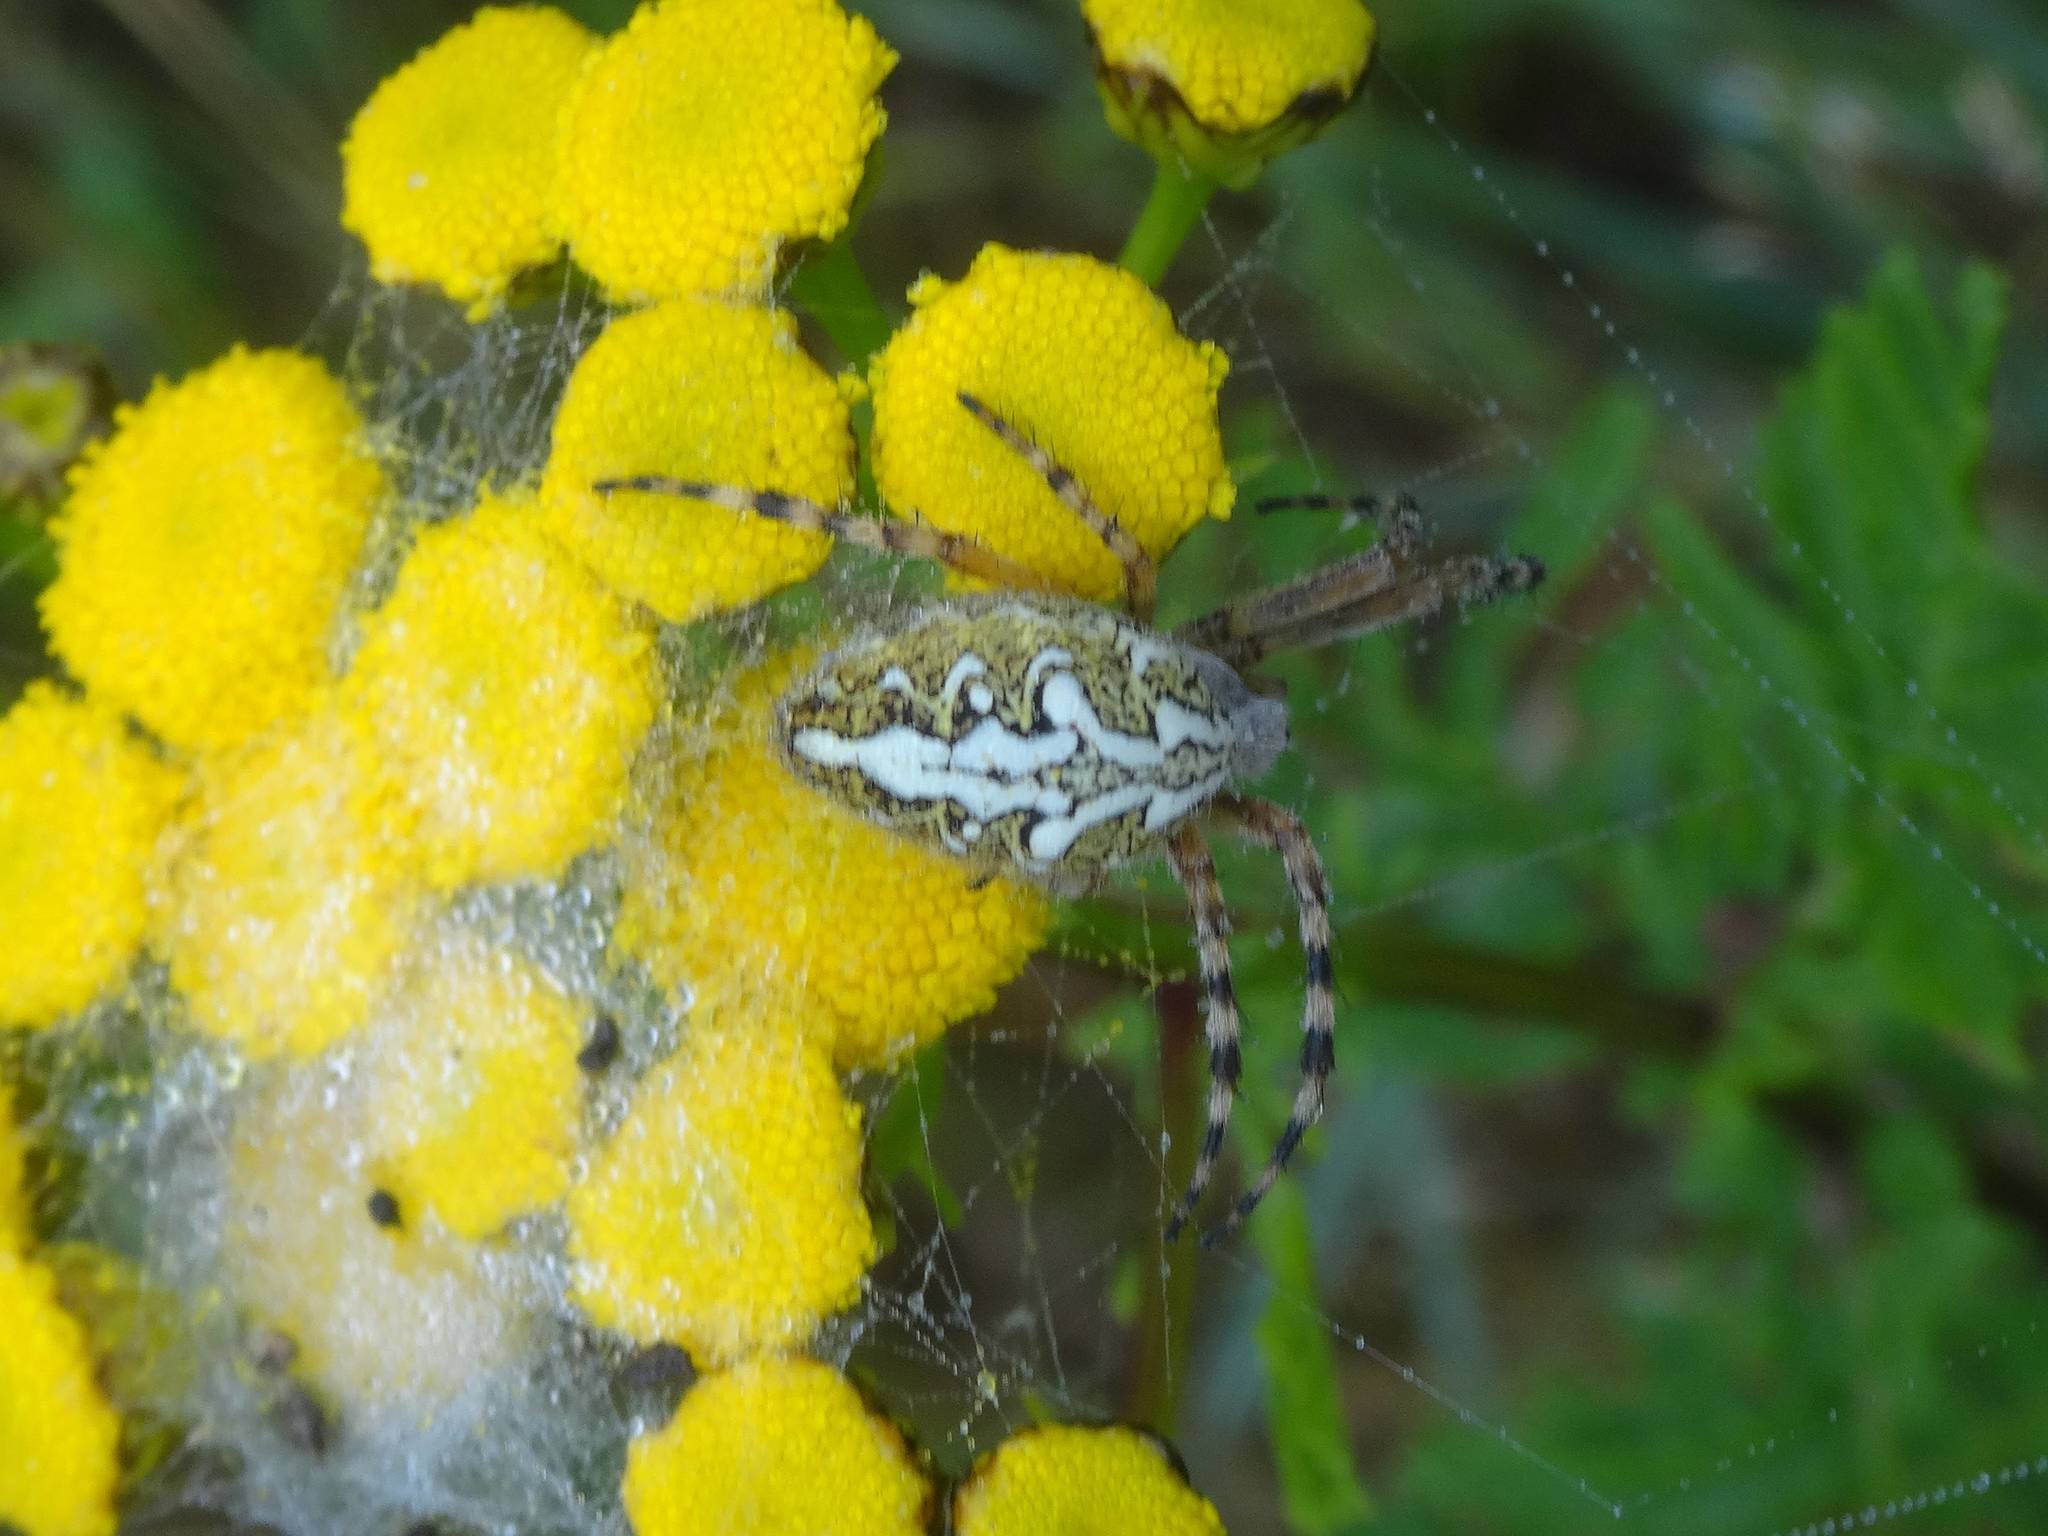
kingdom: Animalia
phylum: Arthropoda
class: Arachnida
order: Araneae
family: Araneidae
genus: Aculepeira
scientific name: Aculepeira ceropegia
